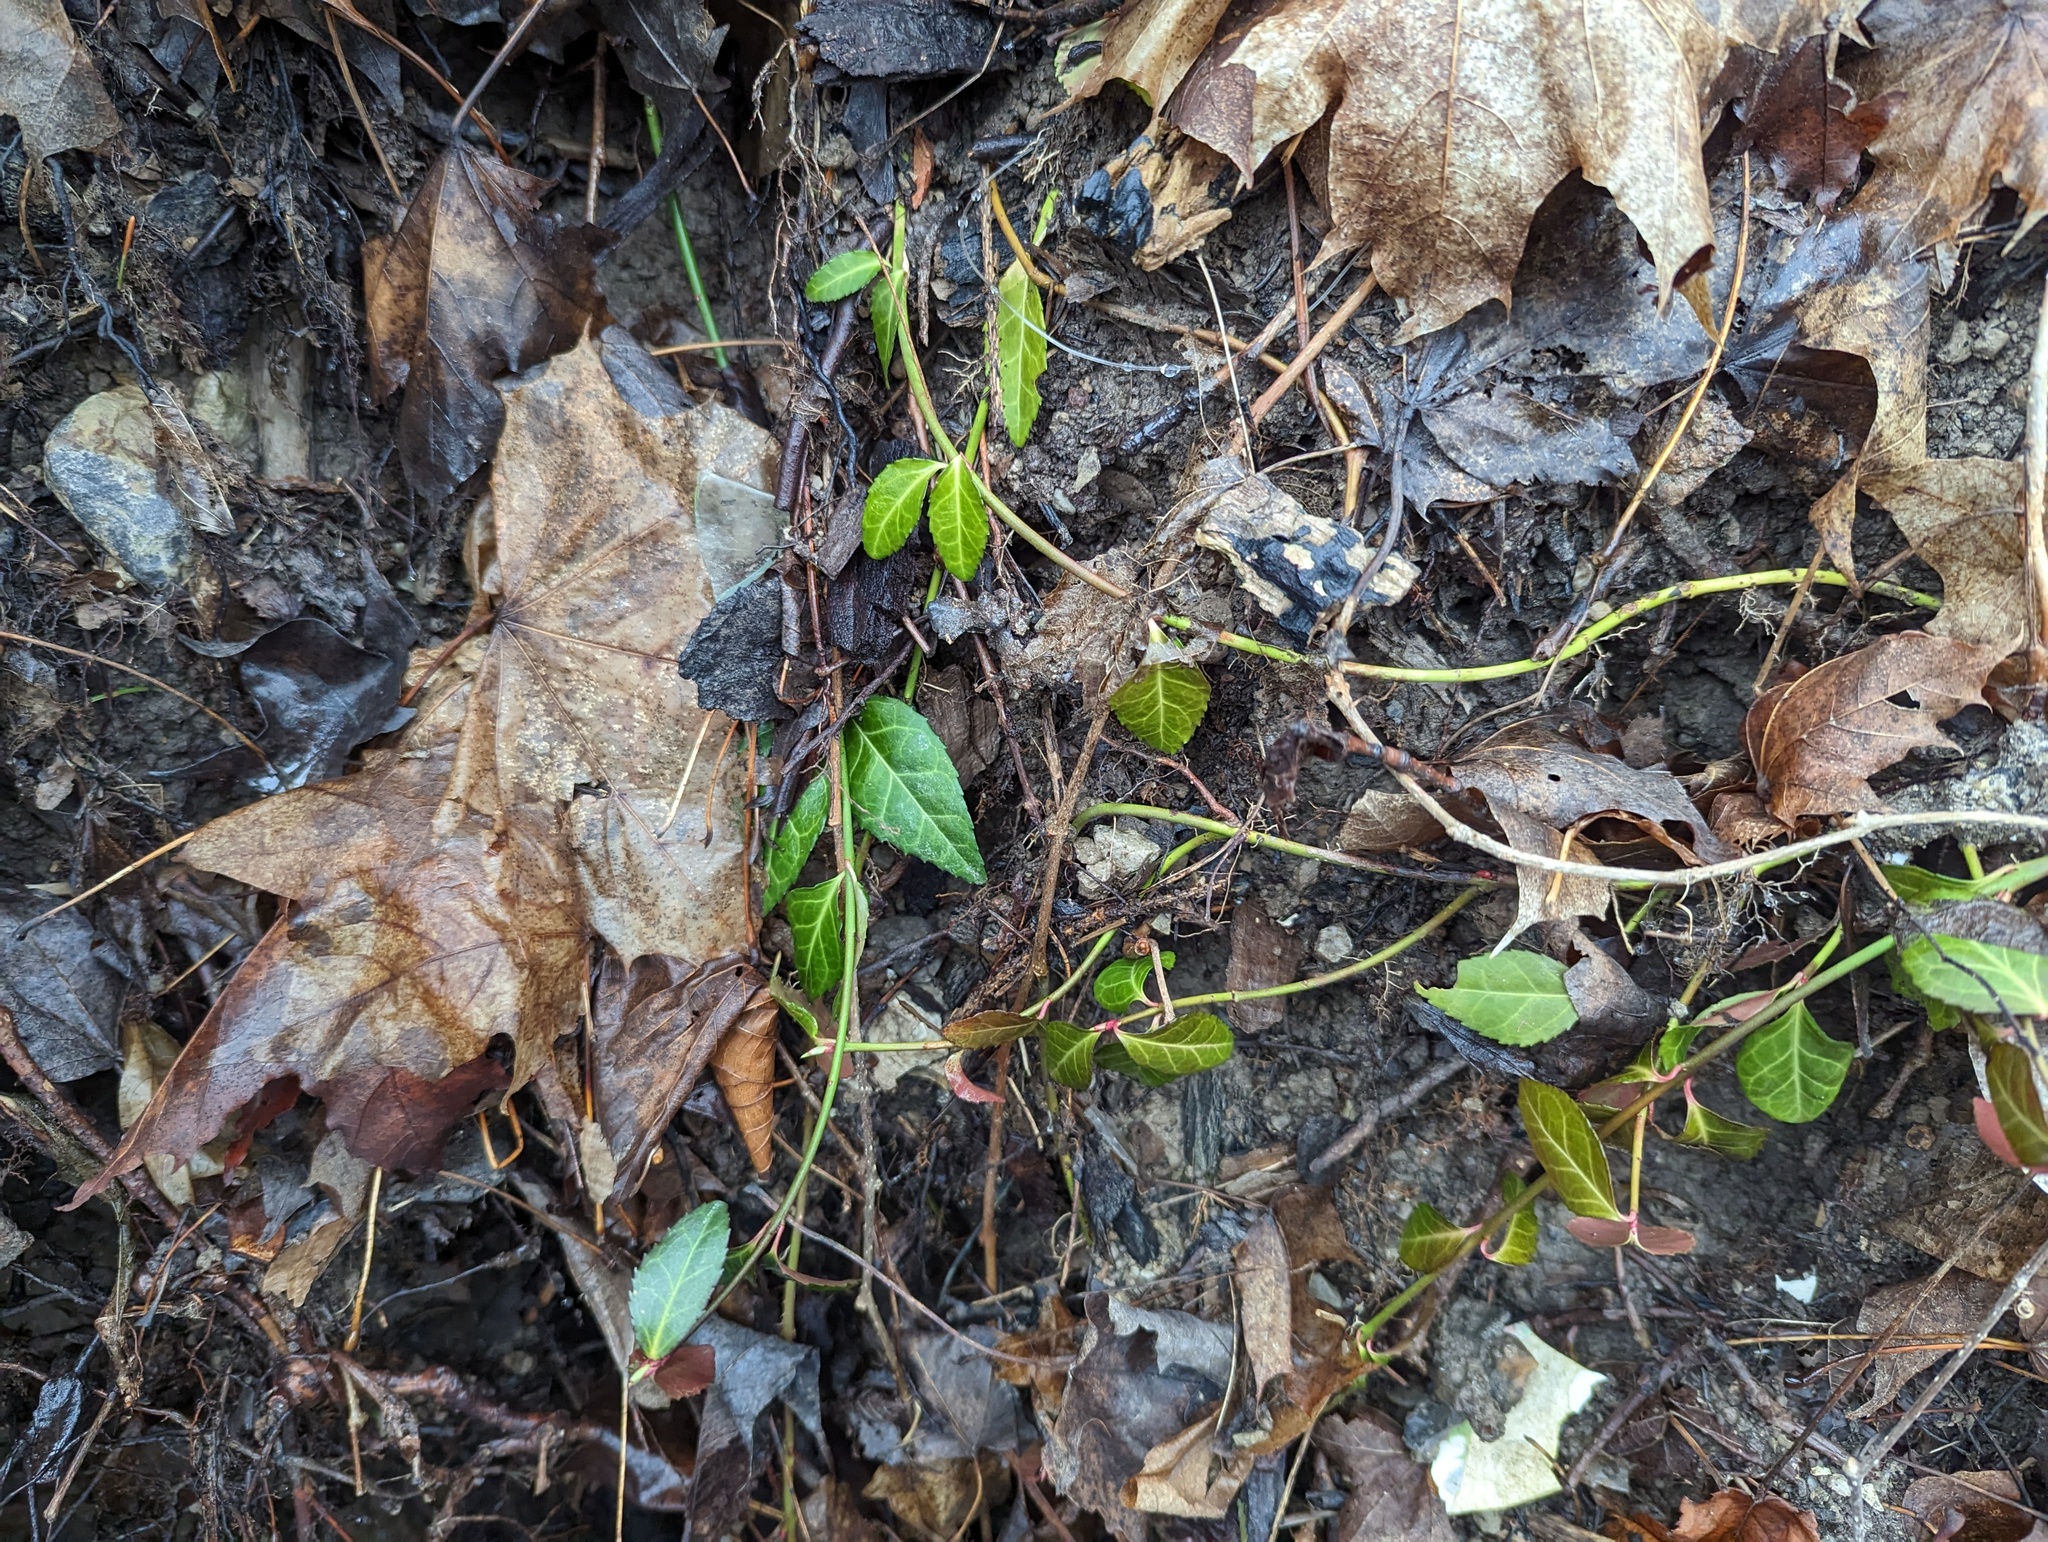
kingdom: Plantae
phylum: Tracheophyta
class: Magnoliopsida
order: Celastrales
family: Celastraceae
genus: Euonymus
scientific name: Euonymus fortunei
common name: Climbing euonymus
